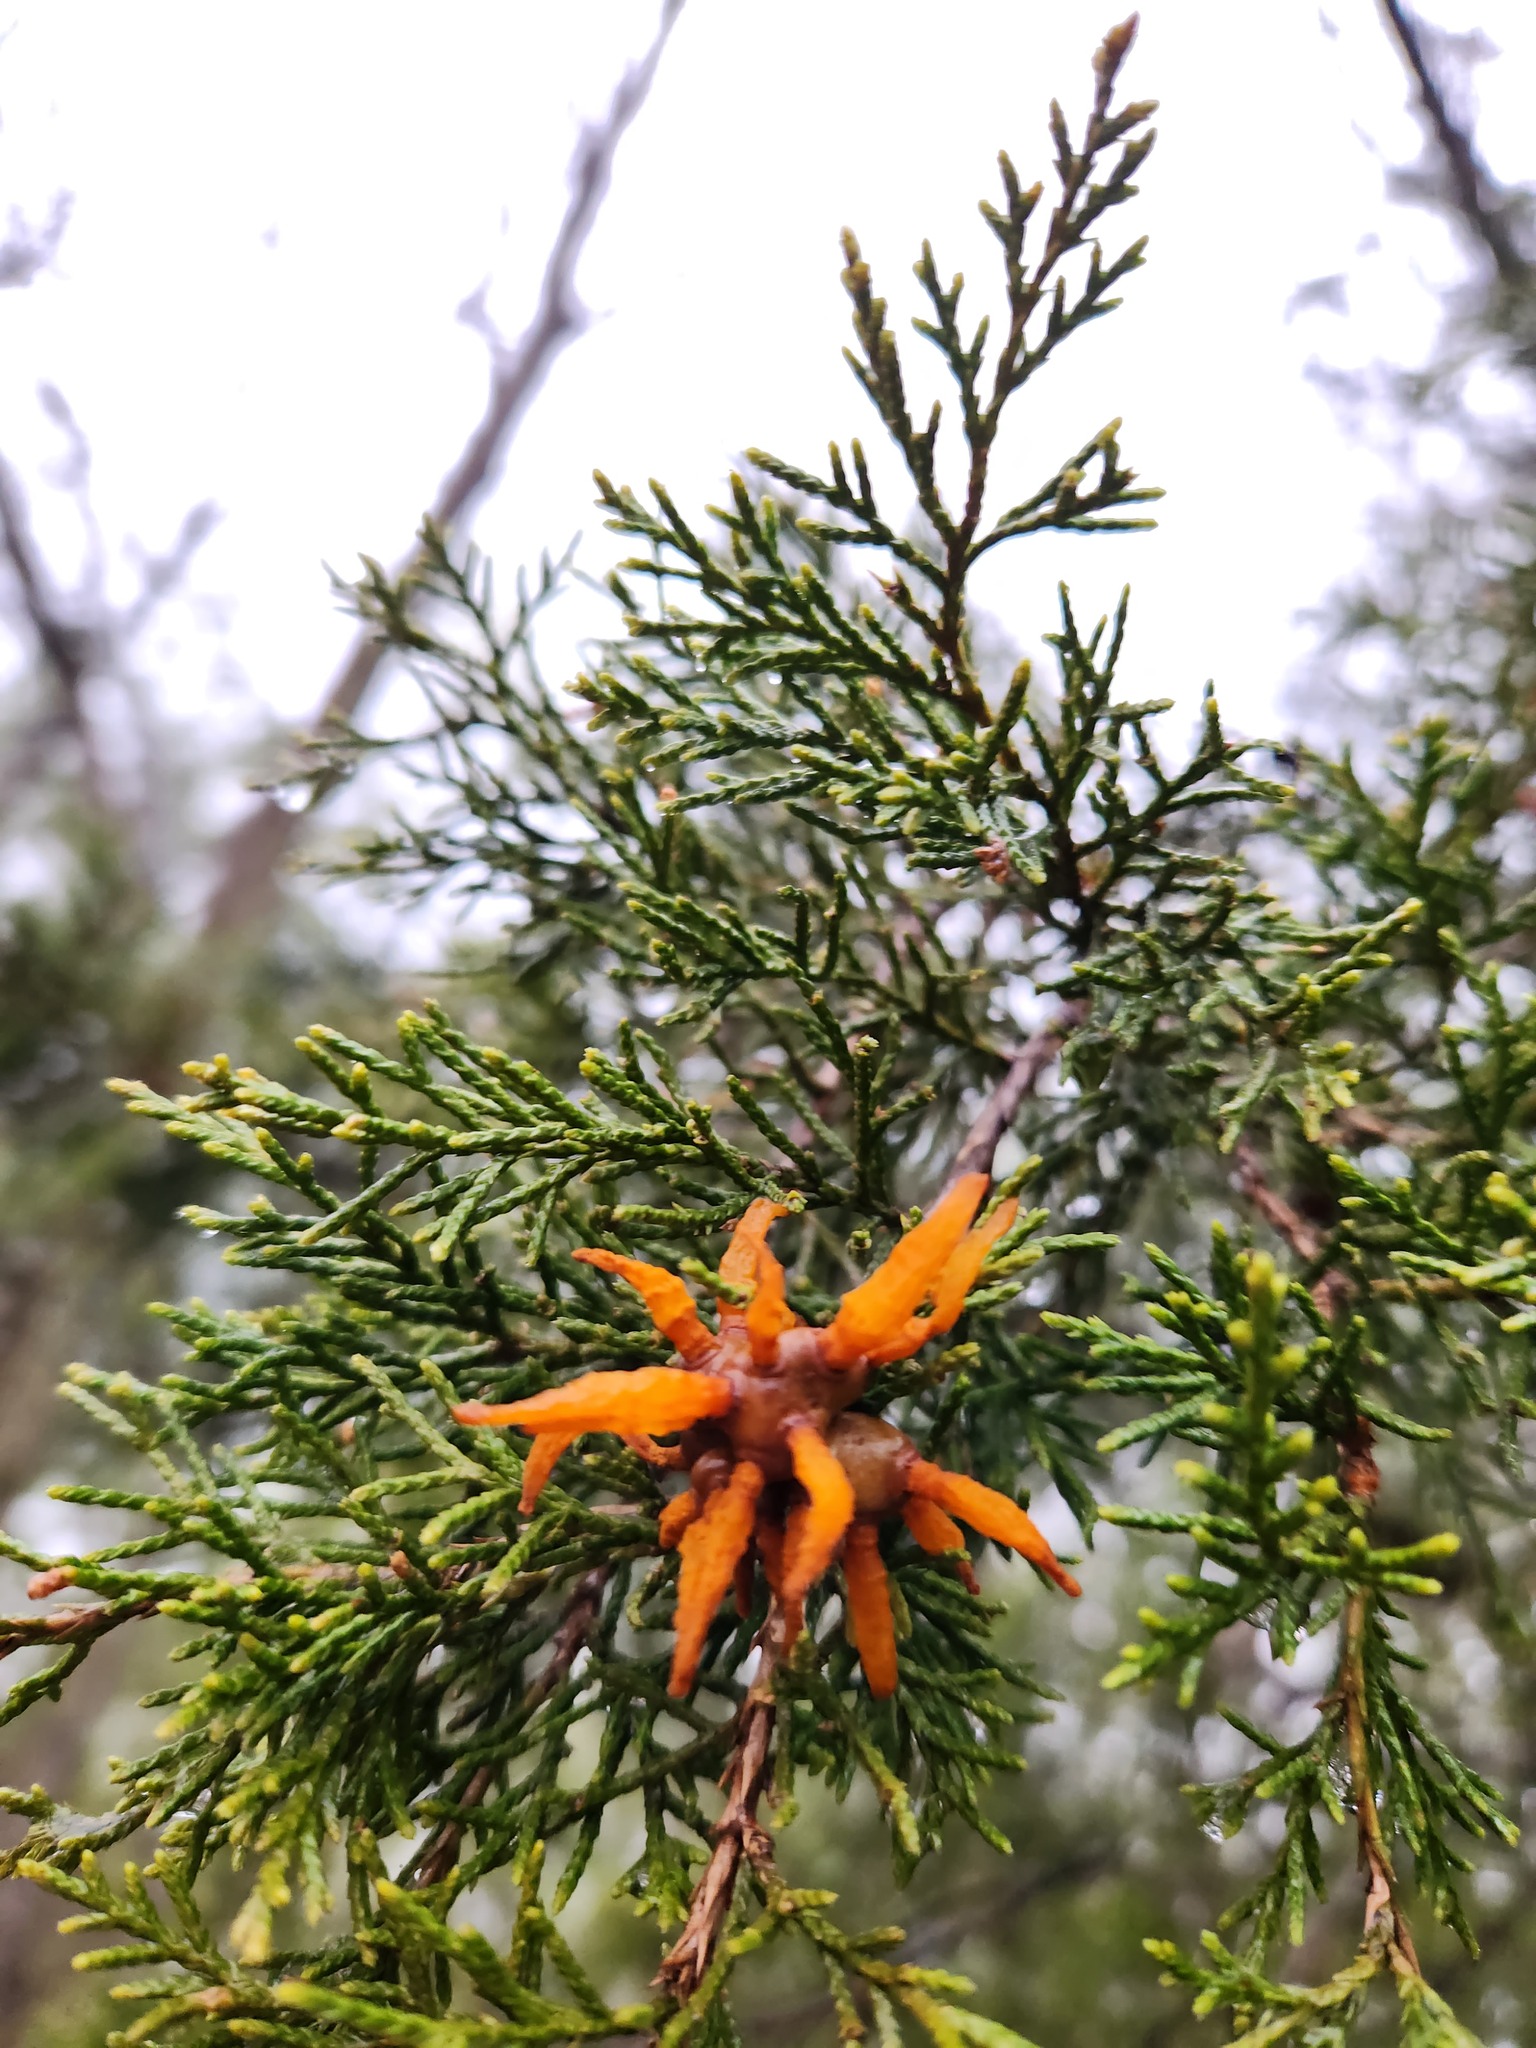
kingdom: Fungi
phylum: Basidiomycota
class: Pucciniomycetes
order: Pucciniales
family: Gymnosporangiaceae
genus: Gymnosporangium
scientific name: Gymnosporangium juniperi-virginianae
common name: Juniper-apple rust
